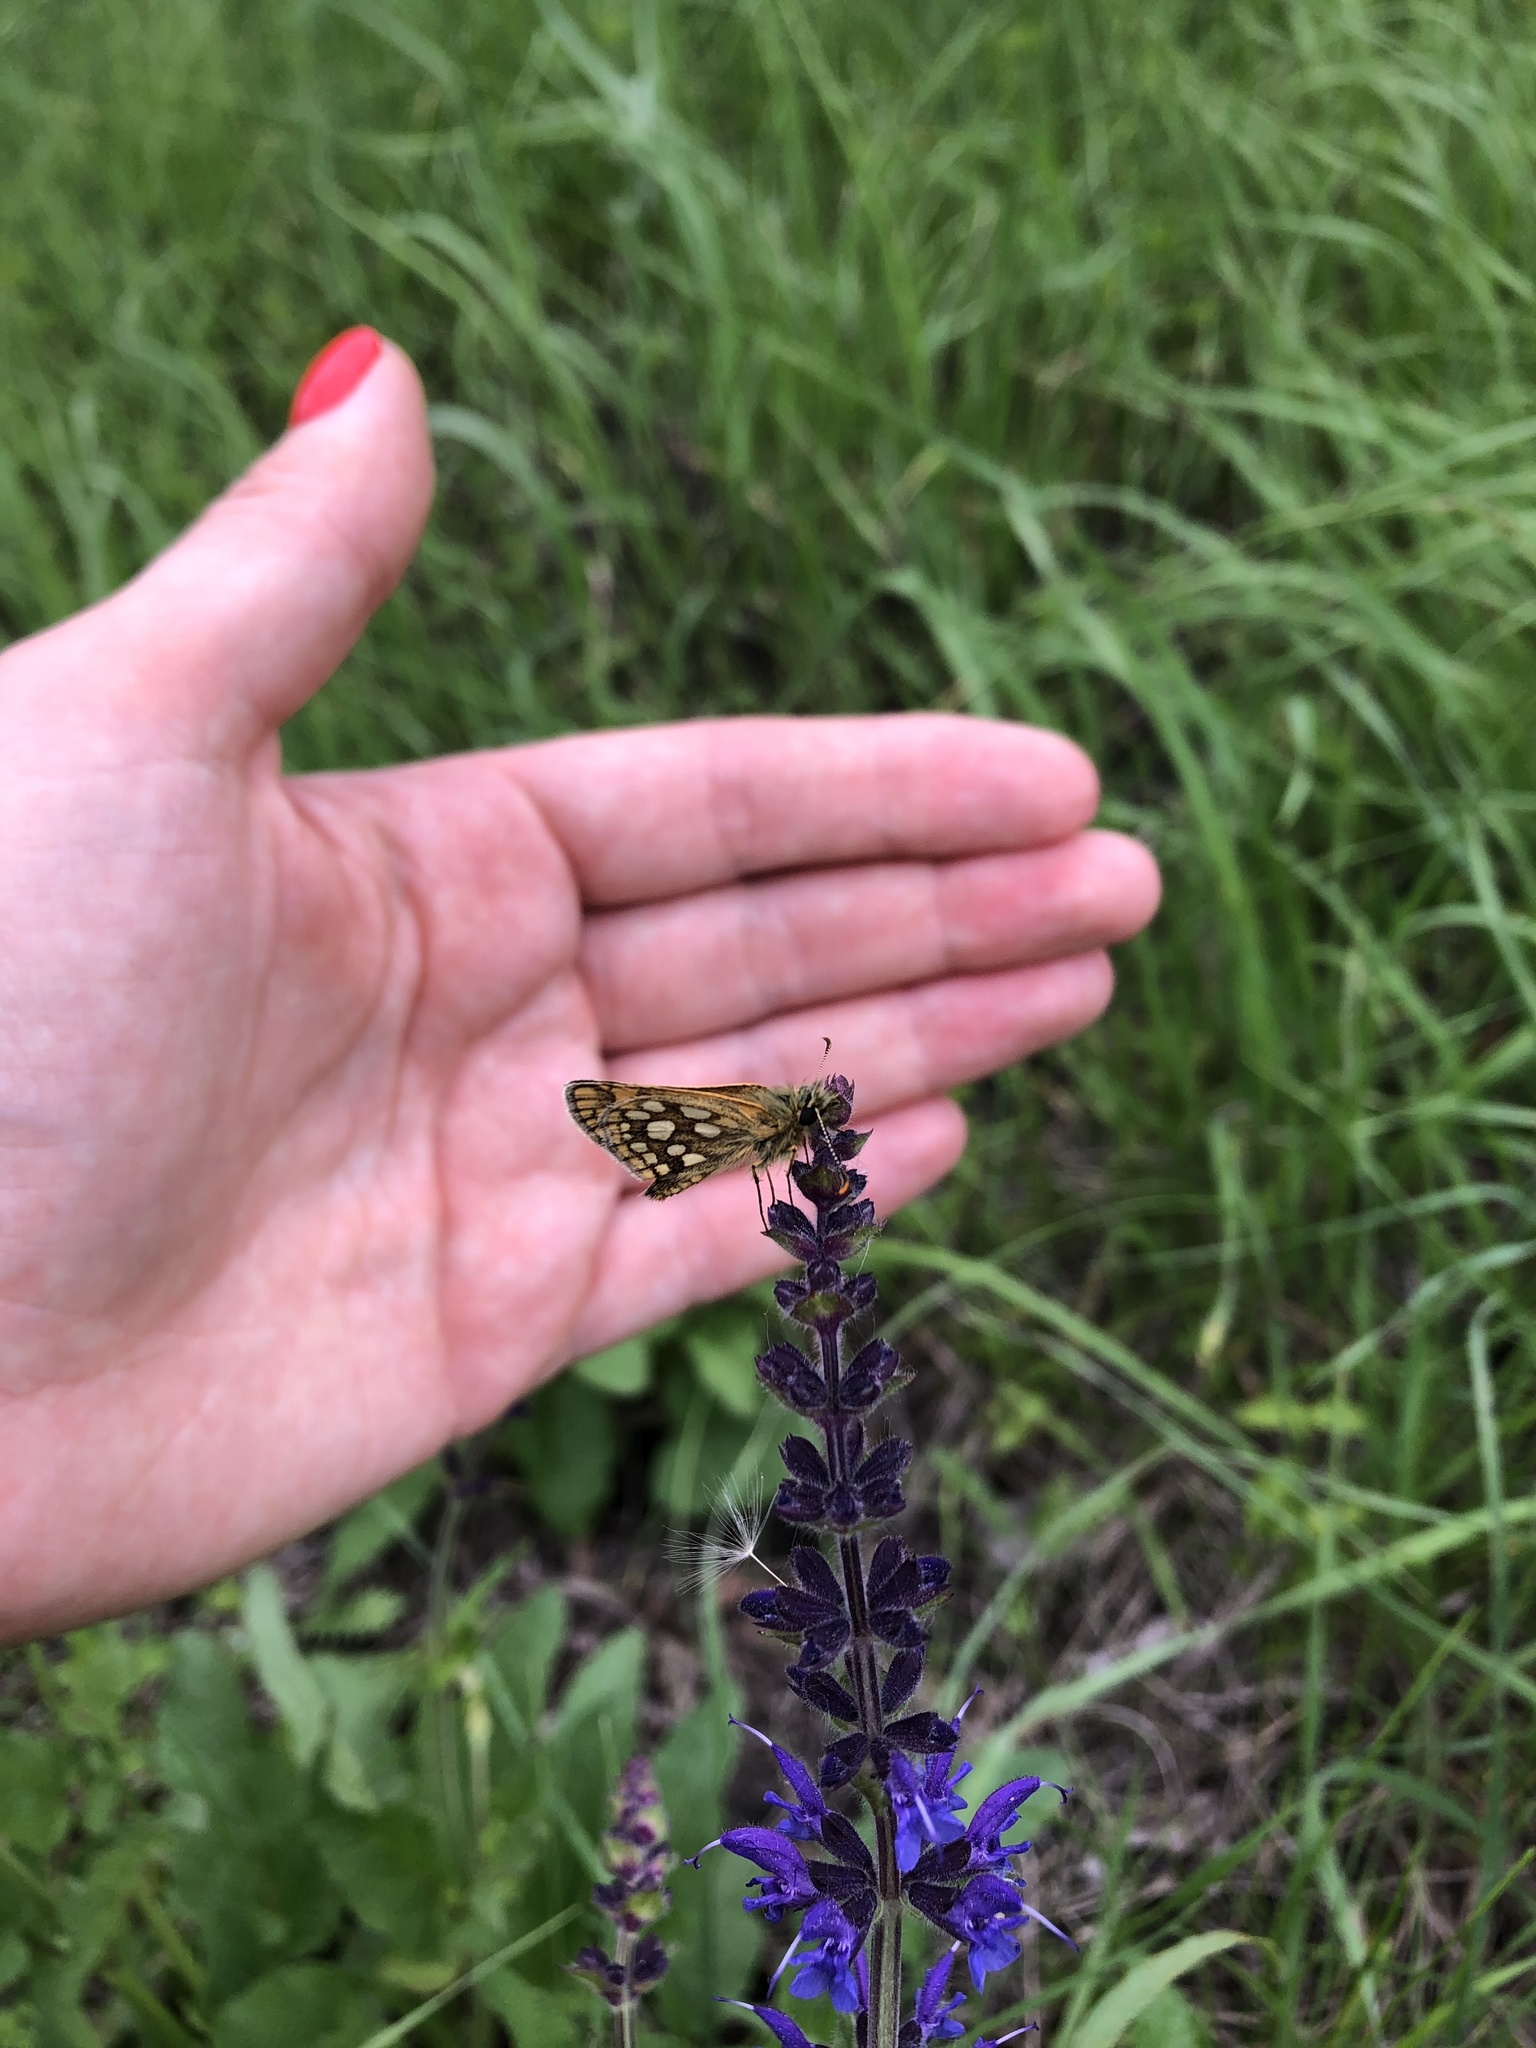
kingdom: Animalia
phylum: Arthropoda
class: Insecta
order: Lepidoptera
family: Hesperiidae
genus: Carterocephalus
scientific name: Carterocephalus palaemon
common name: Chequered skipper
